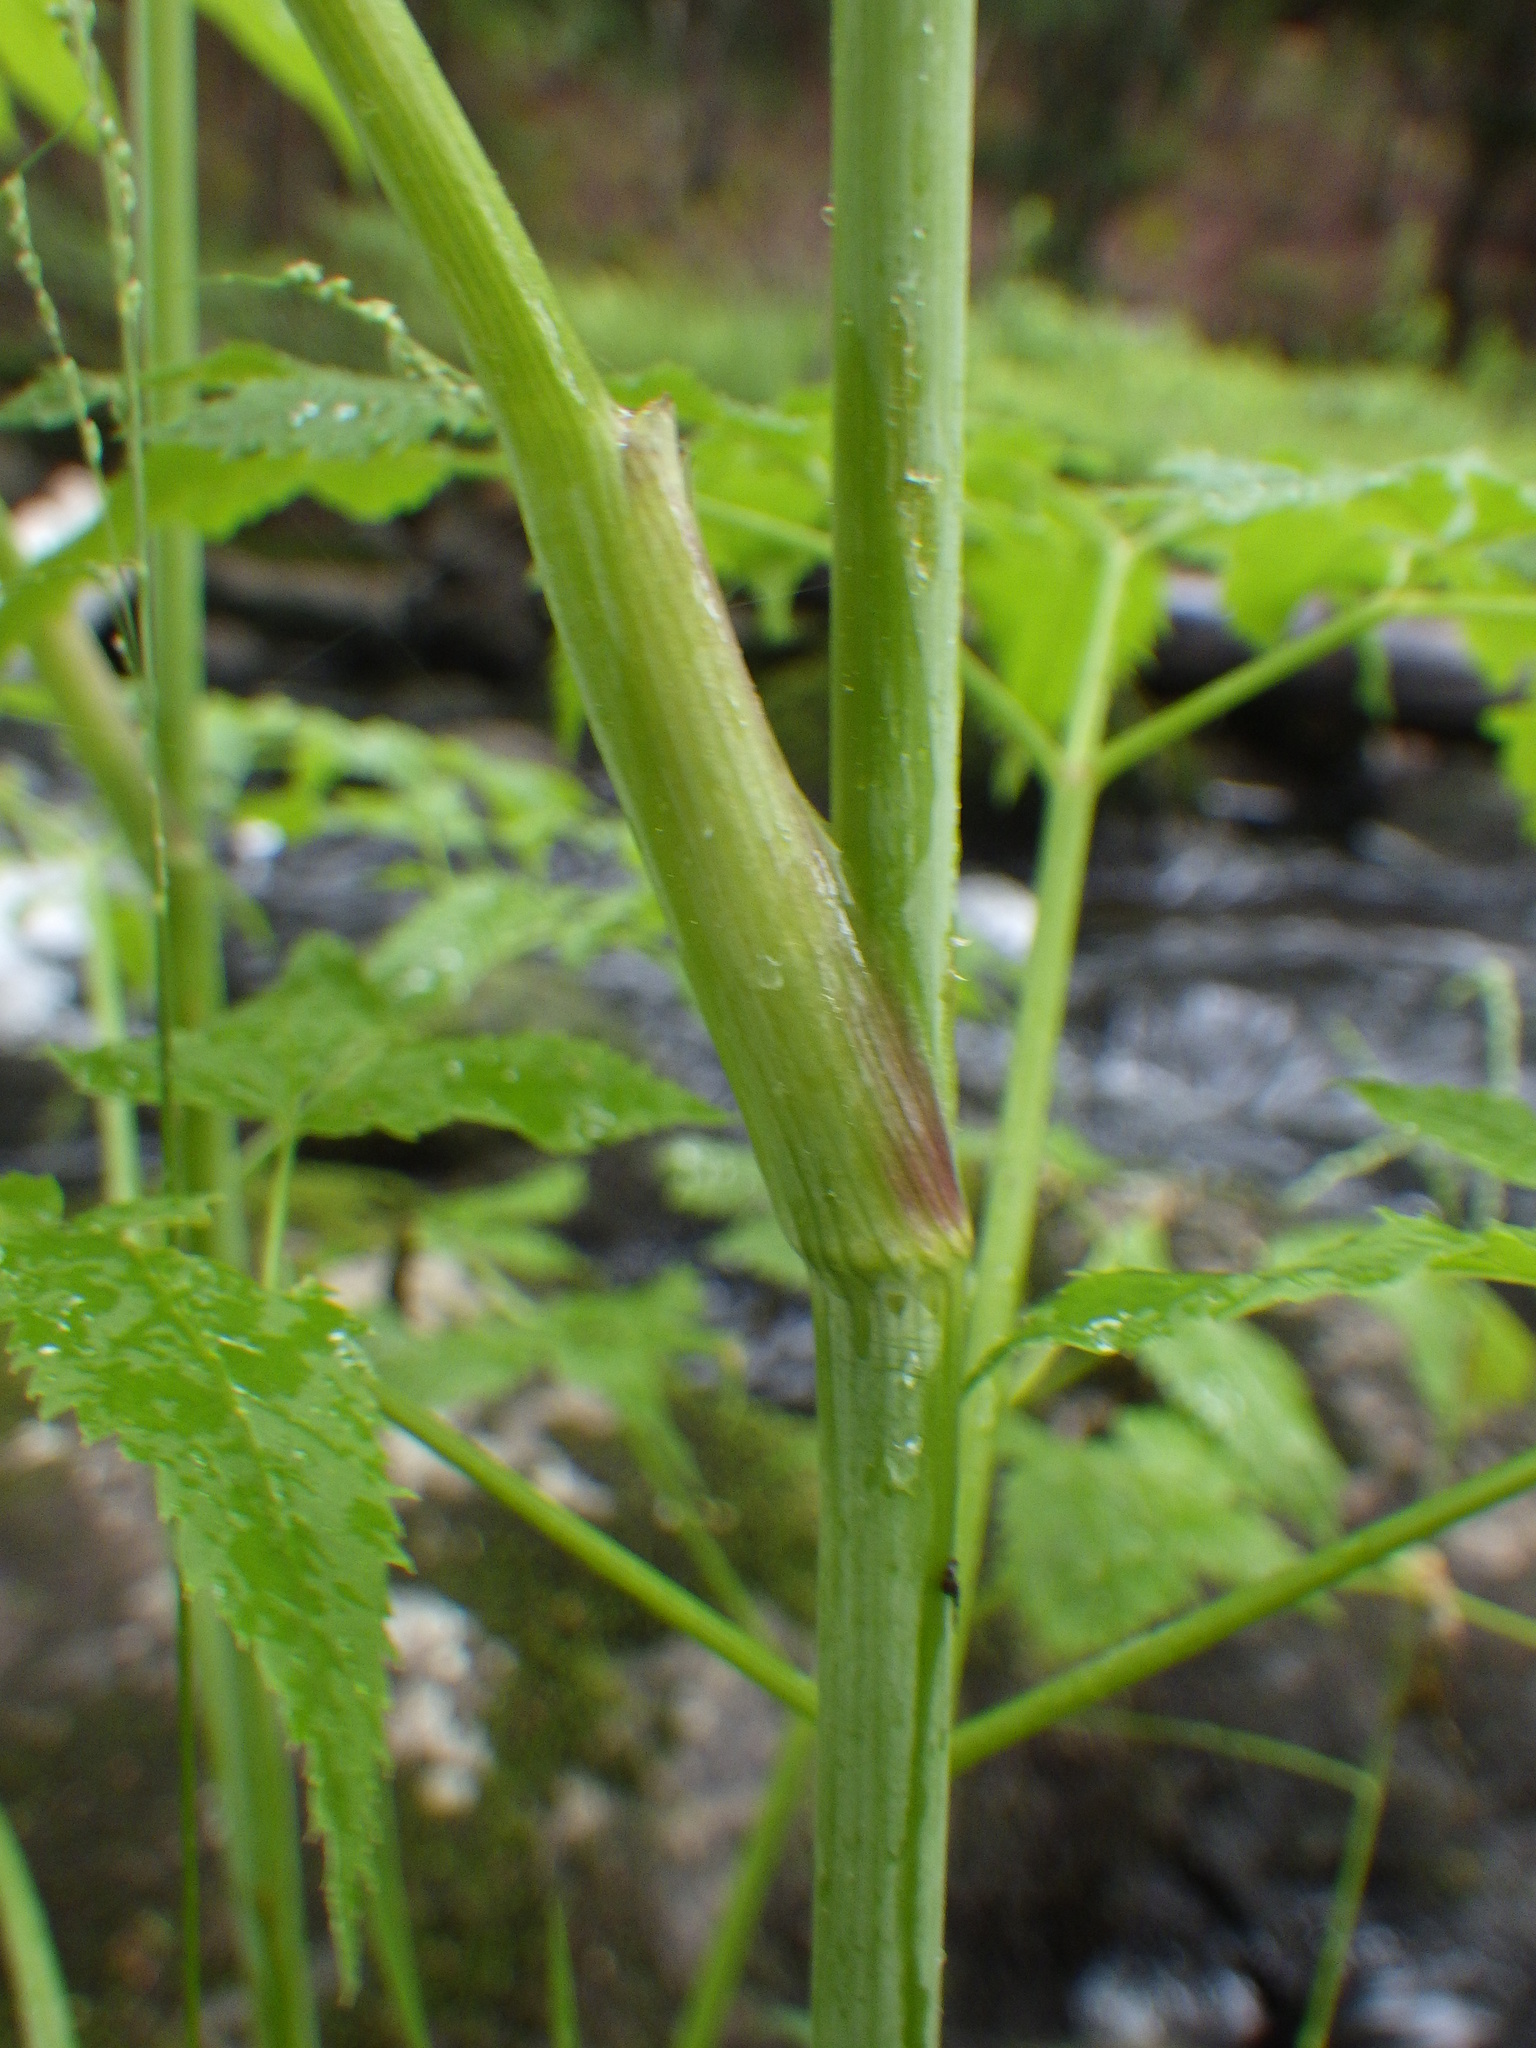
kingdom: Plantae
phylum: Tracheophyta
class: Magnoliopsida
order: Apiales
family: Apiaceae
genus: Cicuta
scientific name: Cicuta maculata
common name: Spotted cowbane
